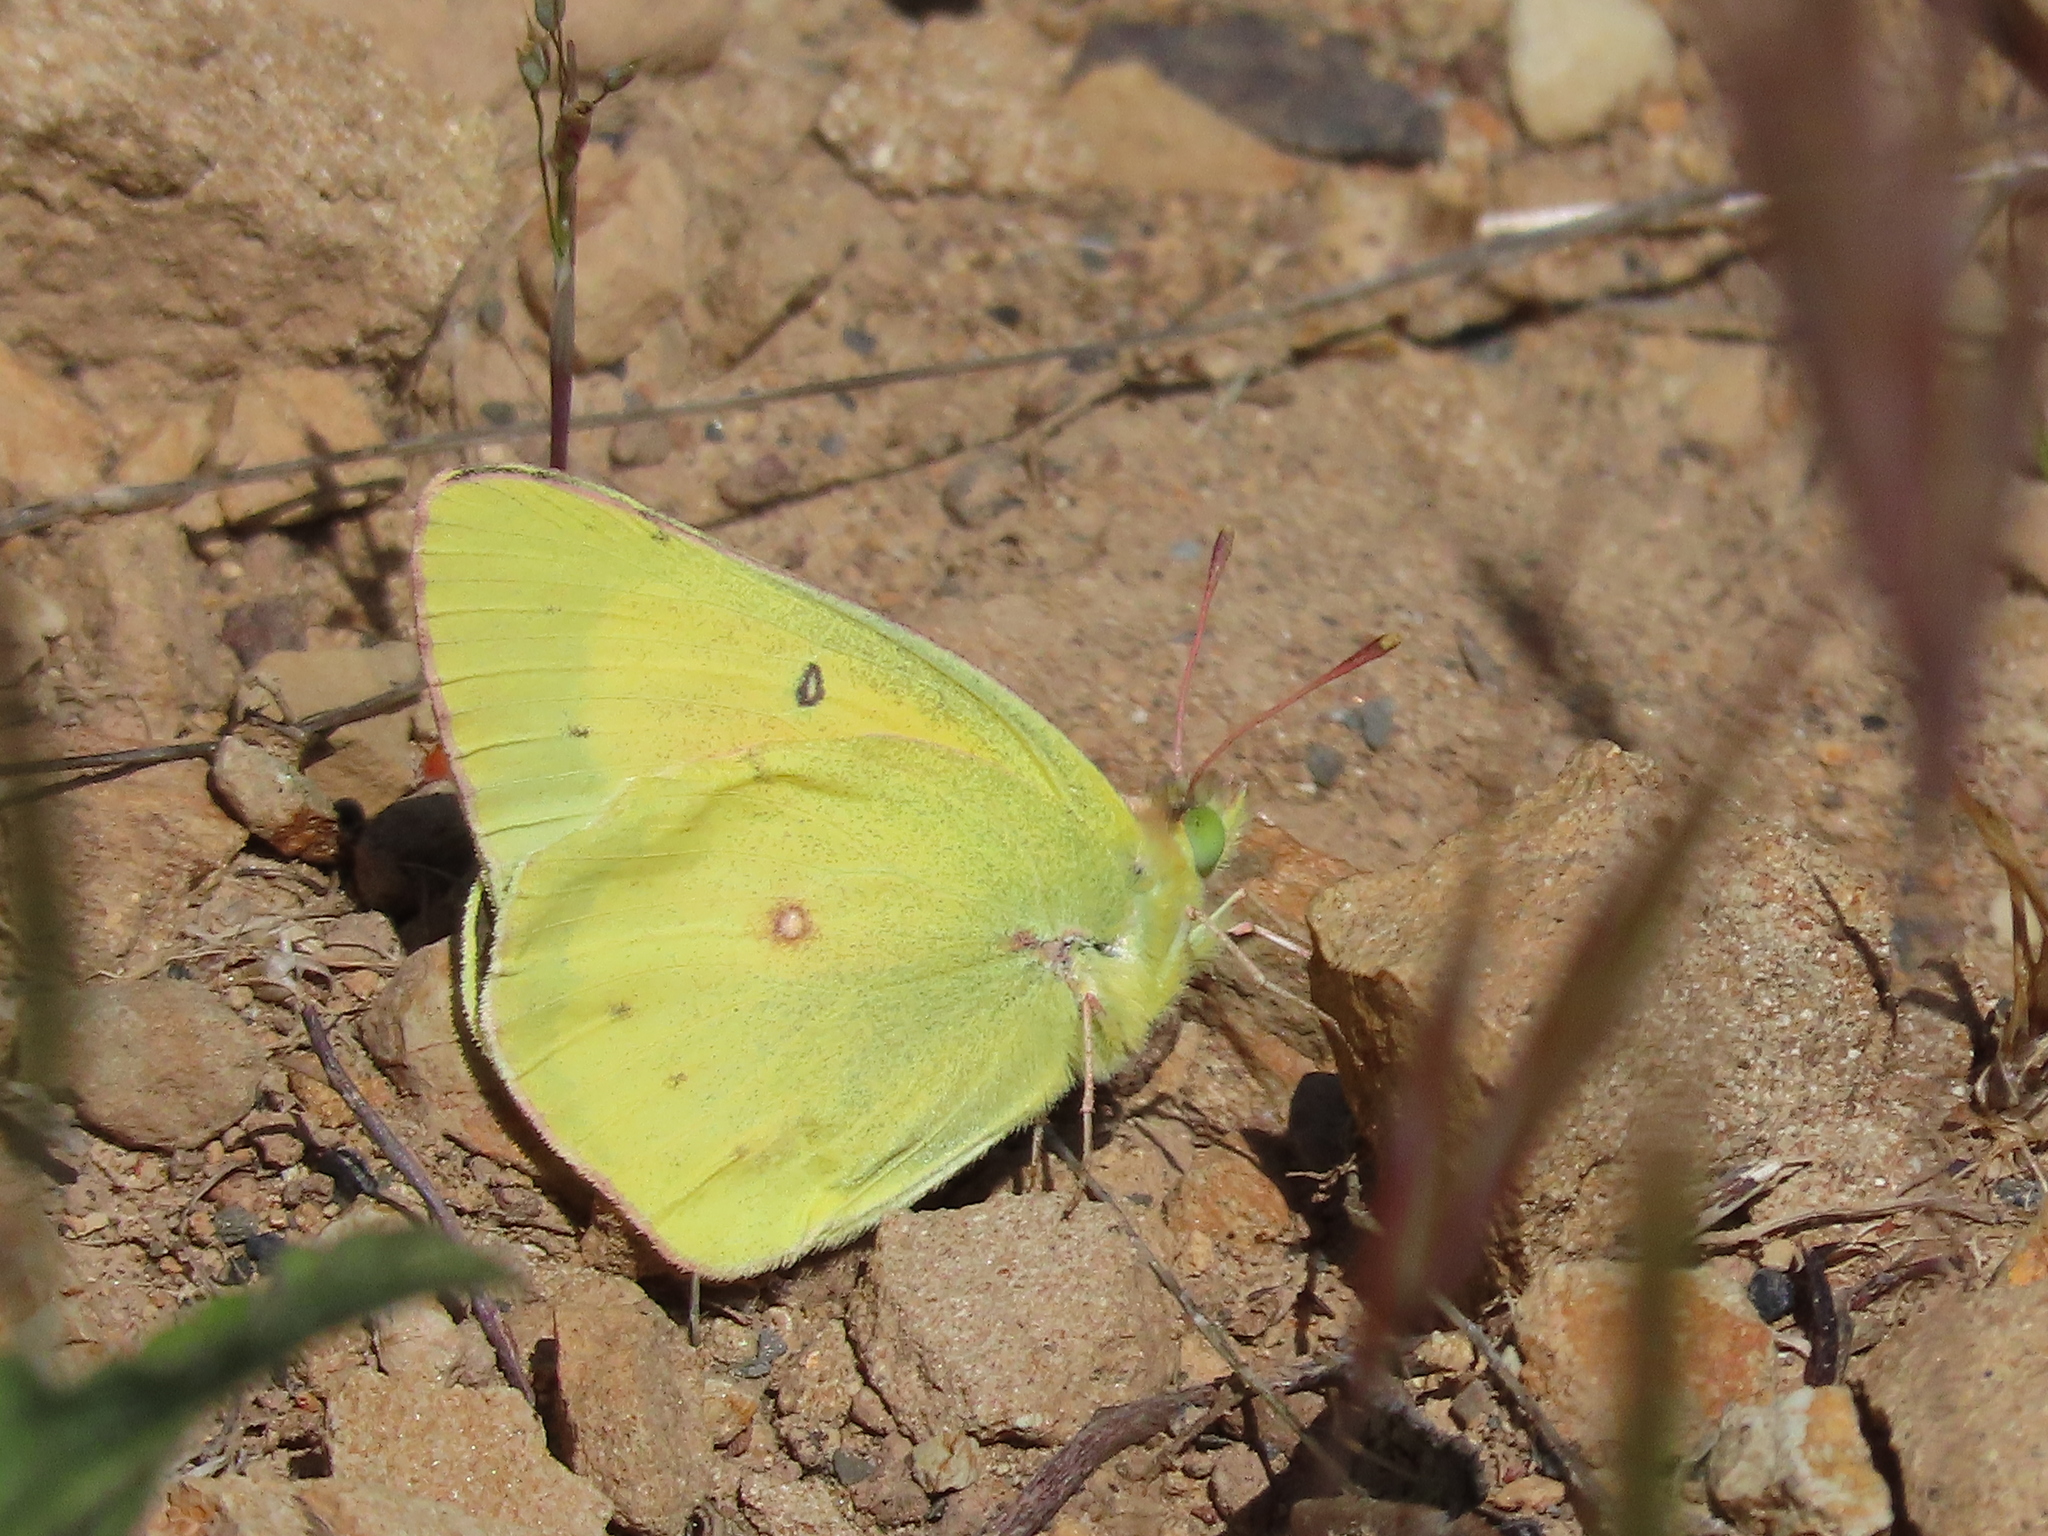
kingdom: Animalia
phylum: Arthropoda
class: Insecta
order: Lepidoptera
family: Pieridae
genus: Colias
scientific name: Colias eurytheme
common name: Alfalfa butterfly
